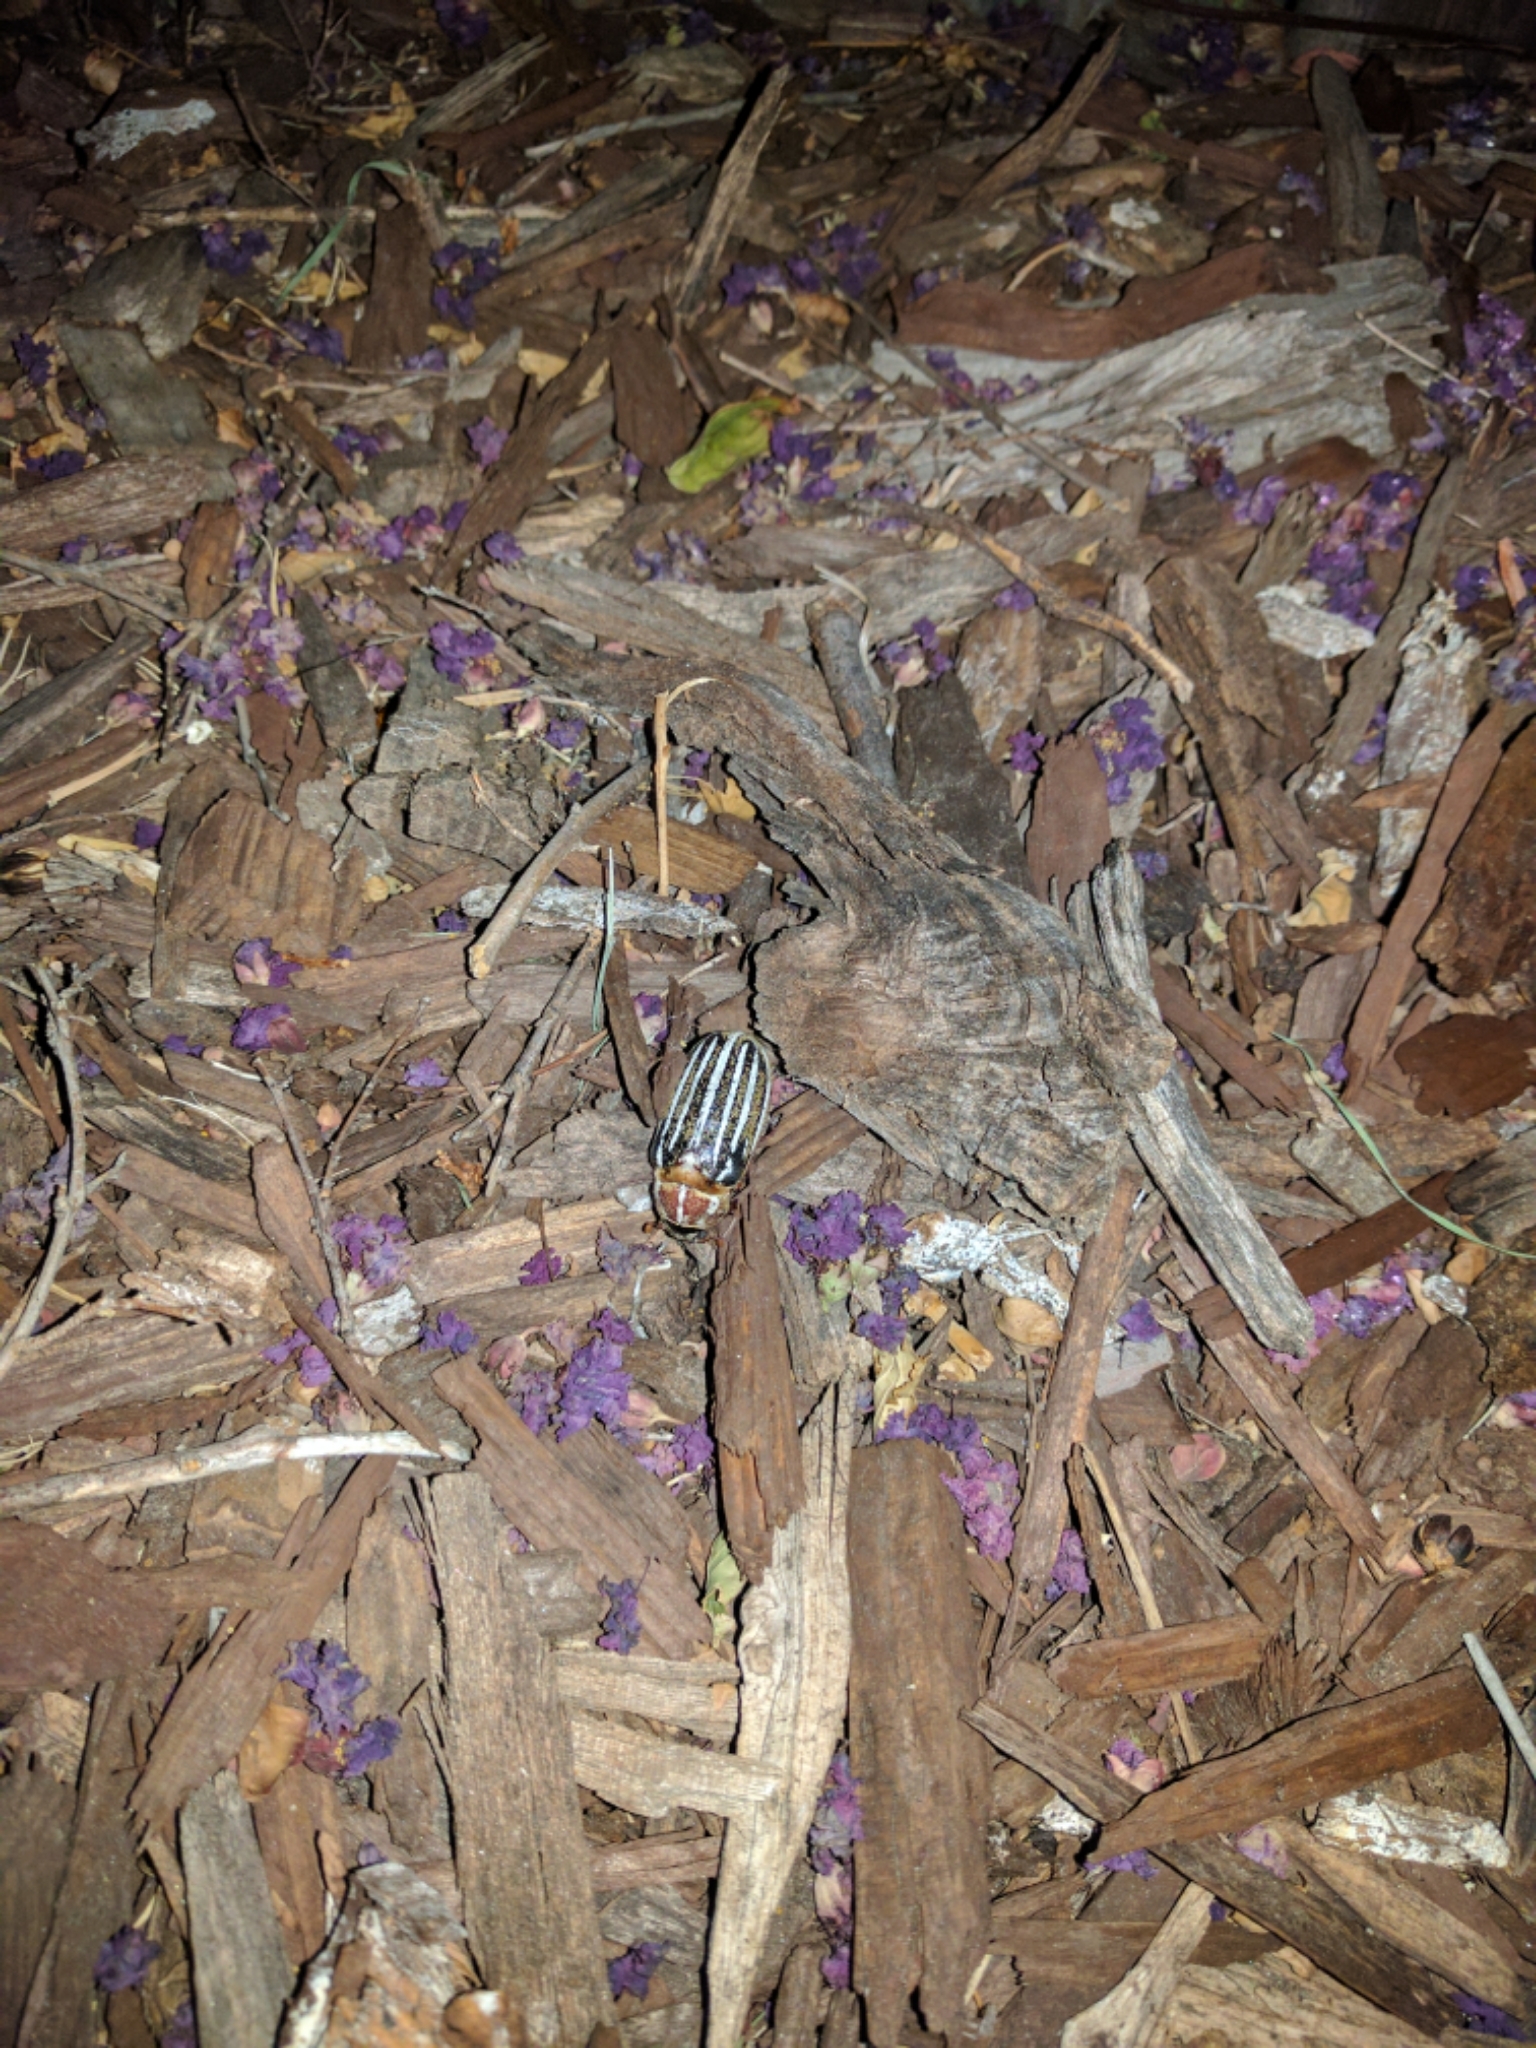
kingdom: Animalia
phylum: Arthropoda
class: Insecta
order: Coleoptera
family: Scarabaeidae
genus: Polyphylla
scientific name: Polyphylla decemlineata
